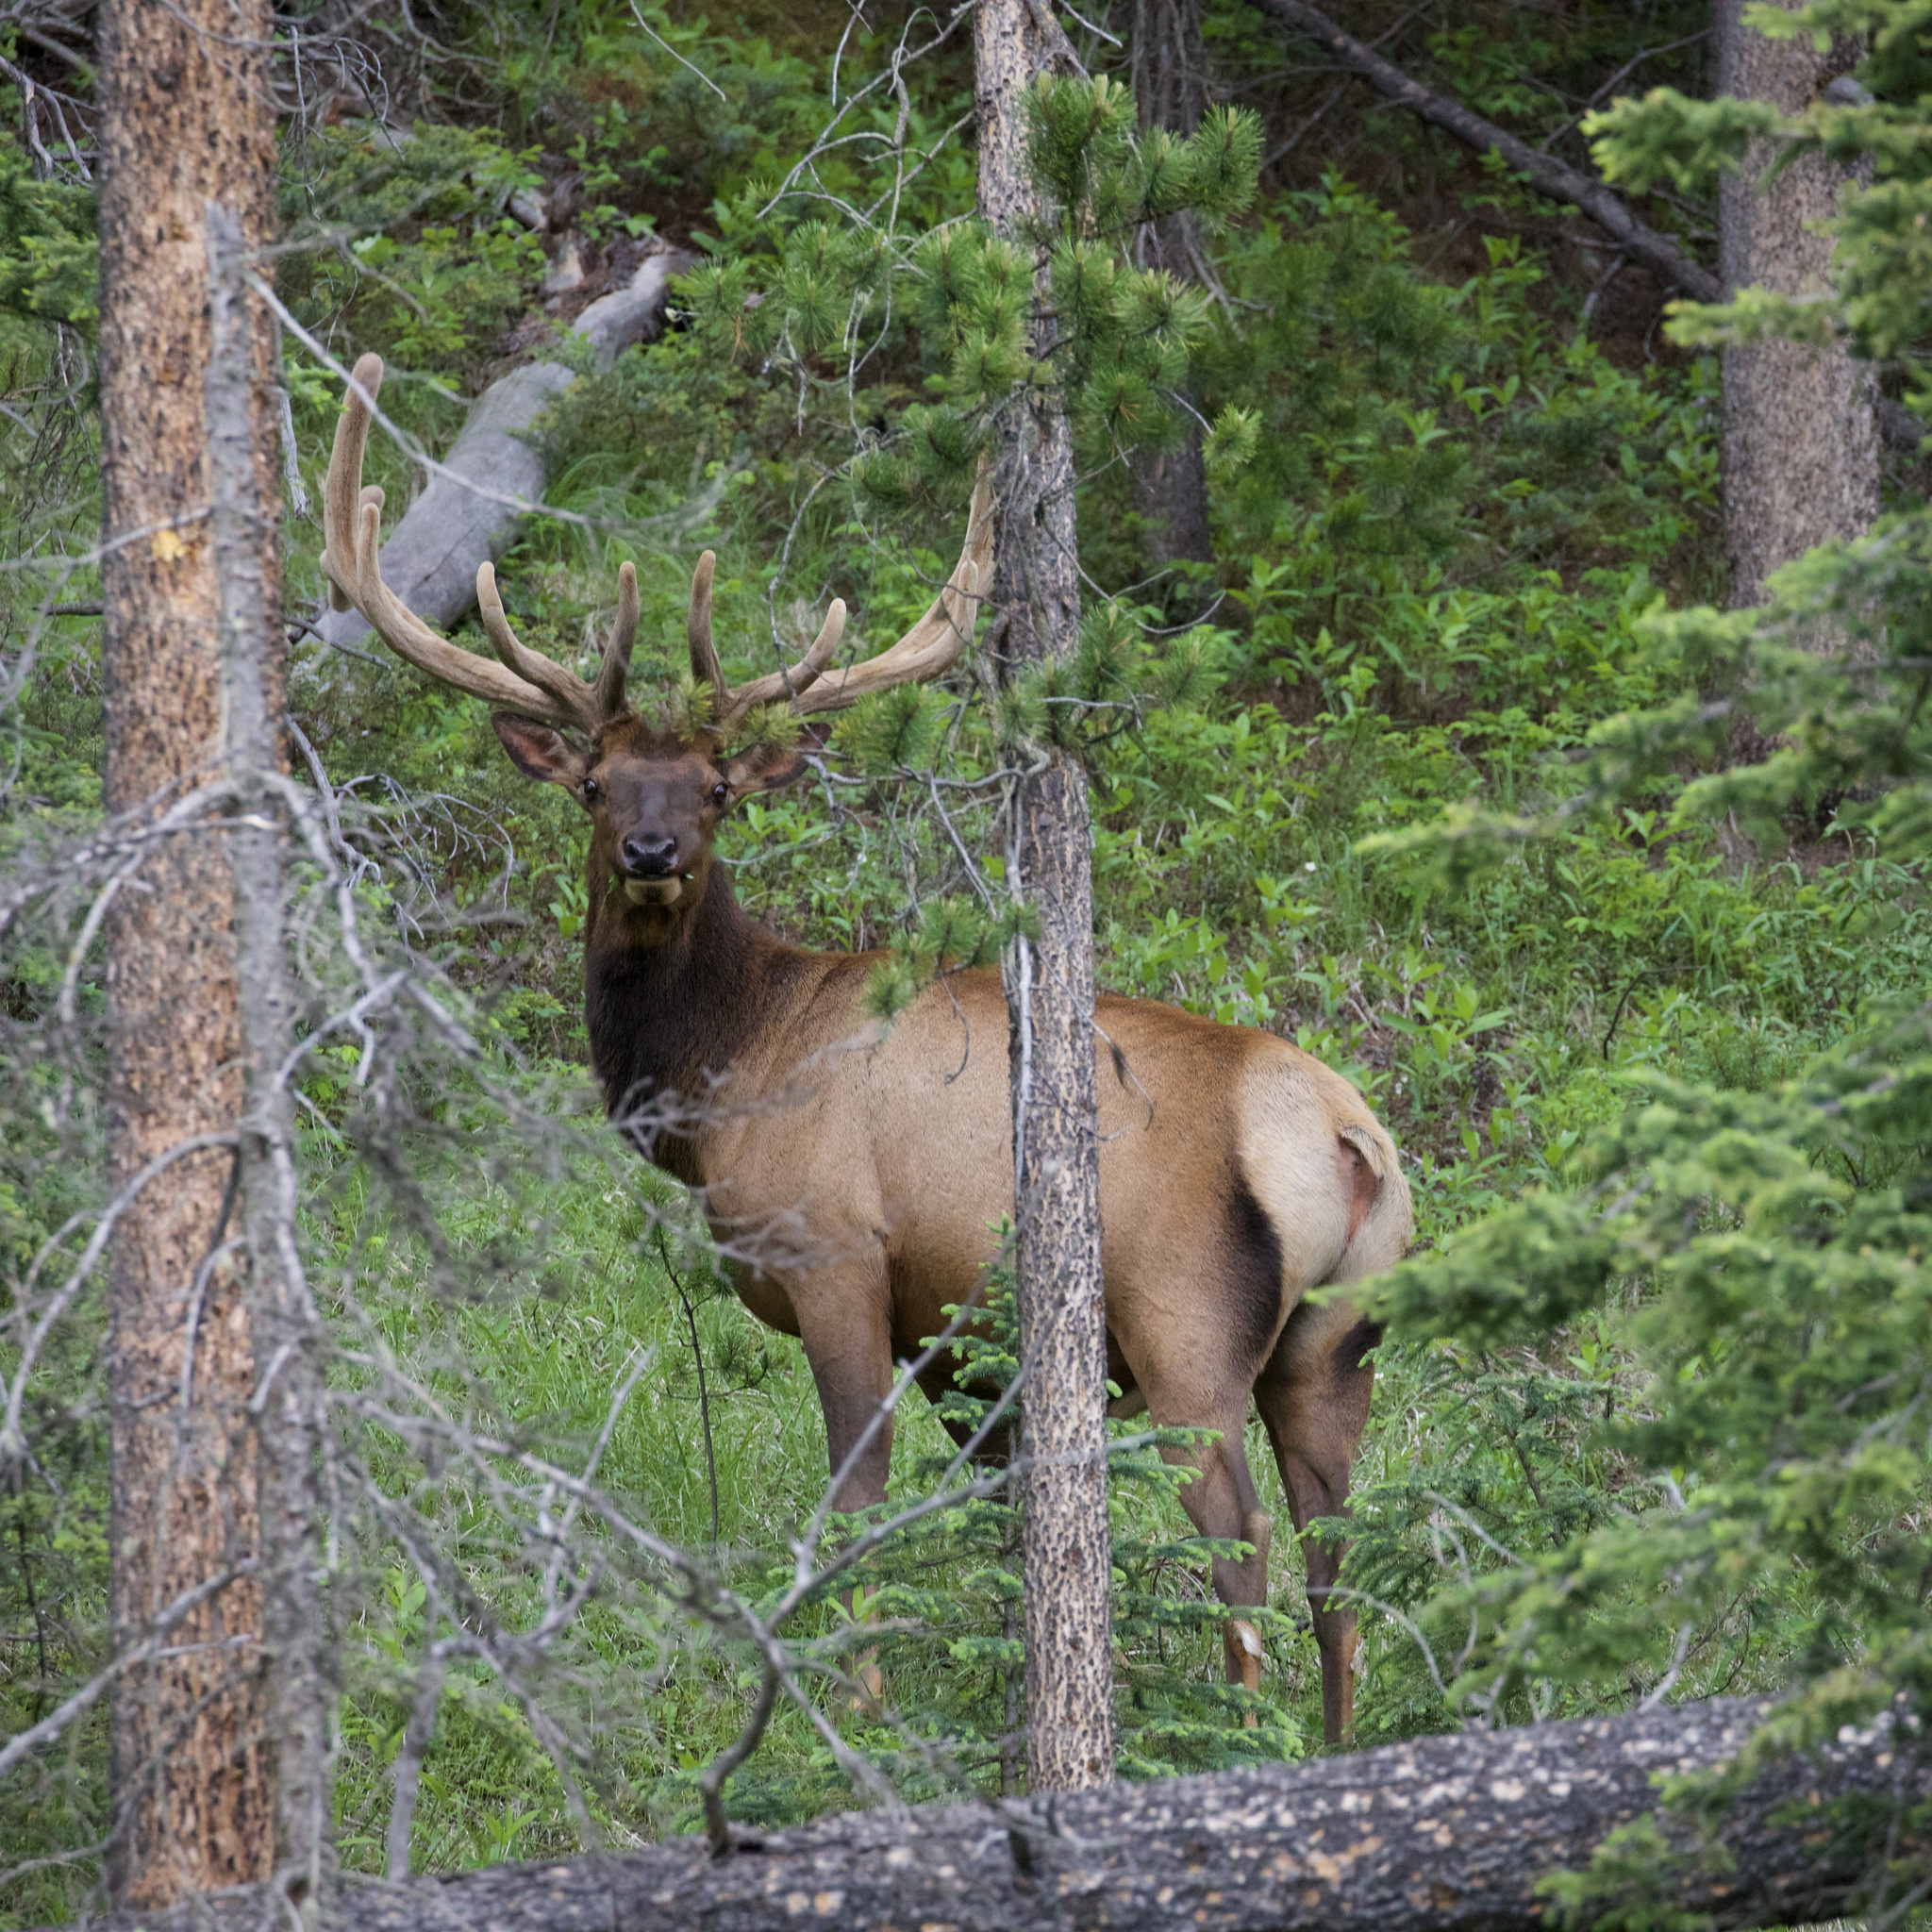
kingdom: Animalia
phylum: Chordata
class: Mammalia
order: Artiodactyla
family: Cervidae
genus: Cervus
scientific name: Cervus elaphus
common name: Red deer
